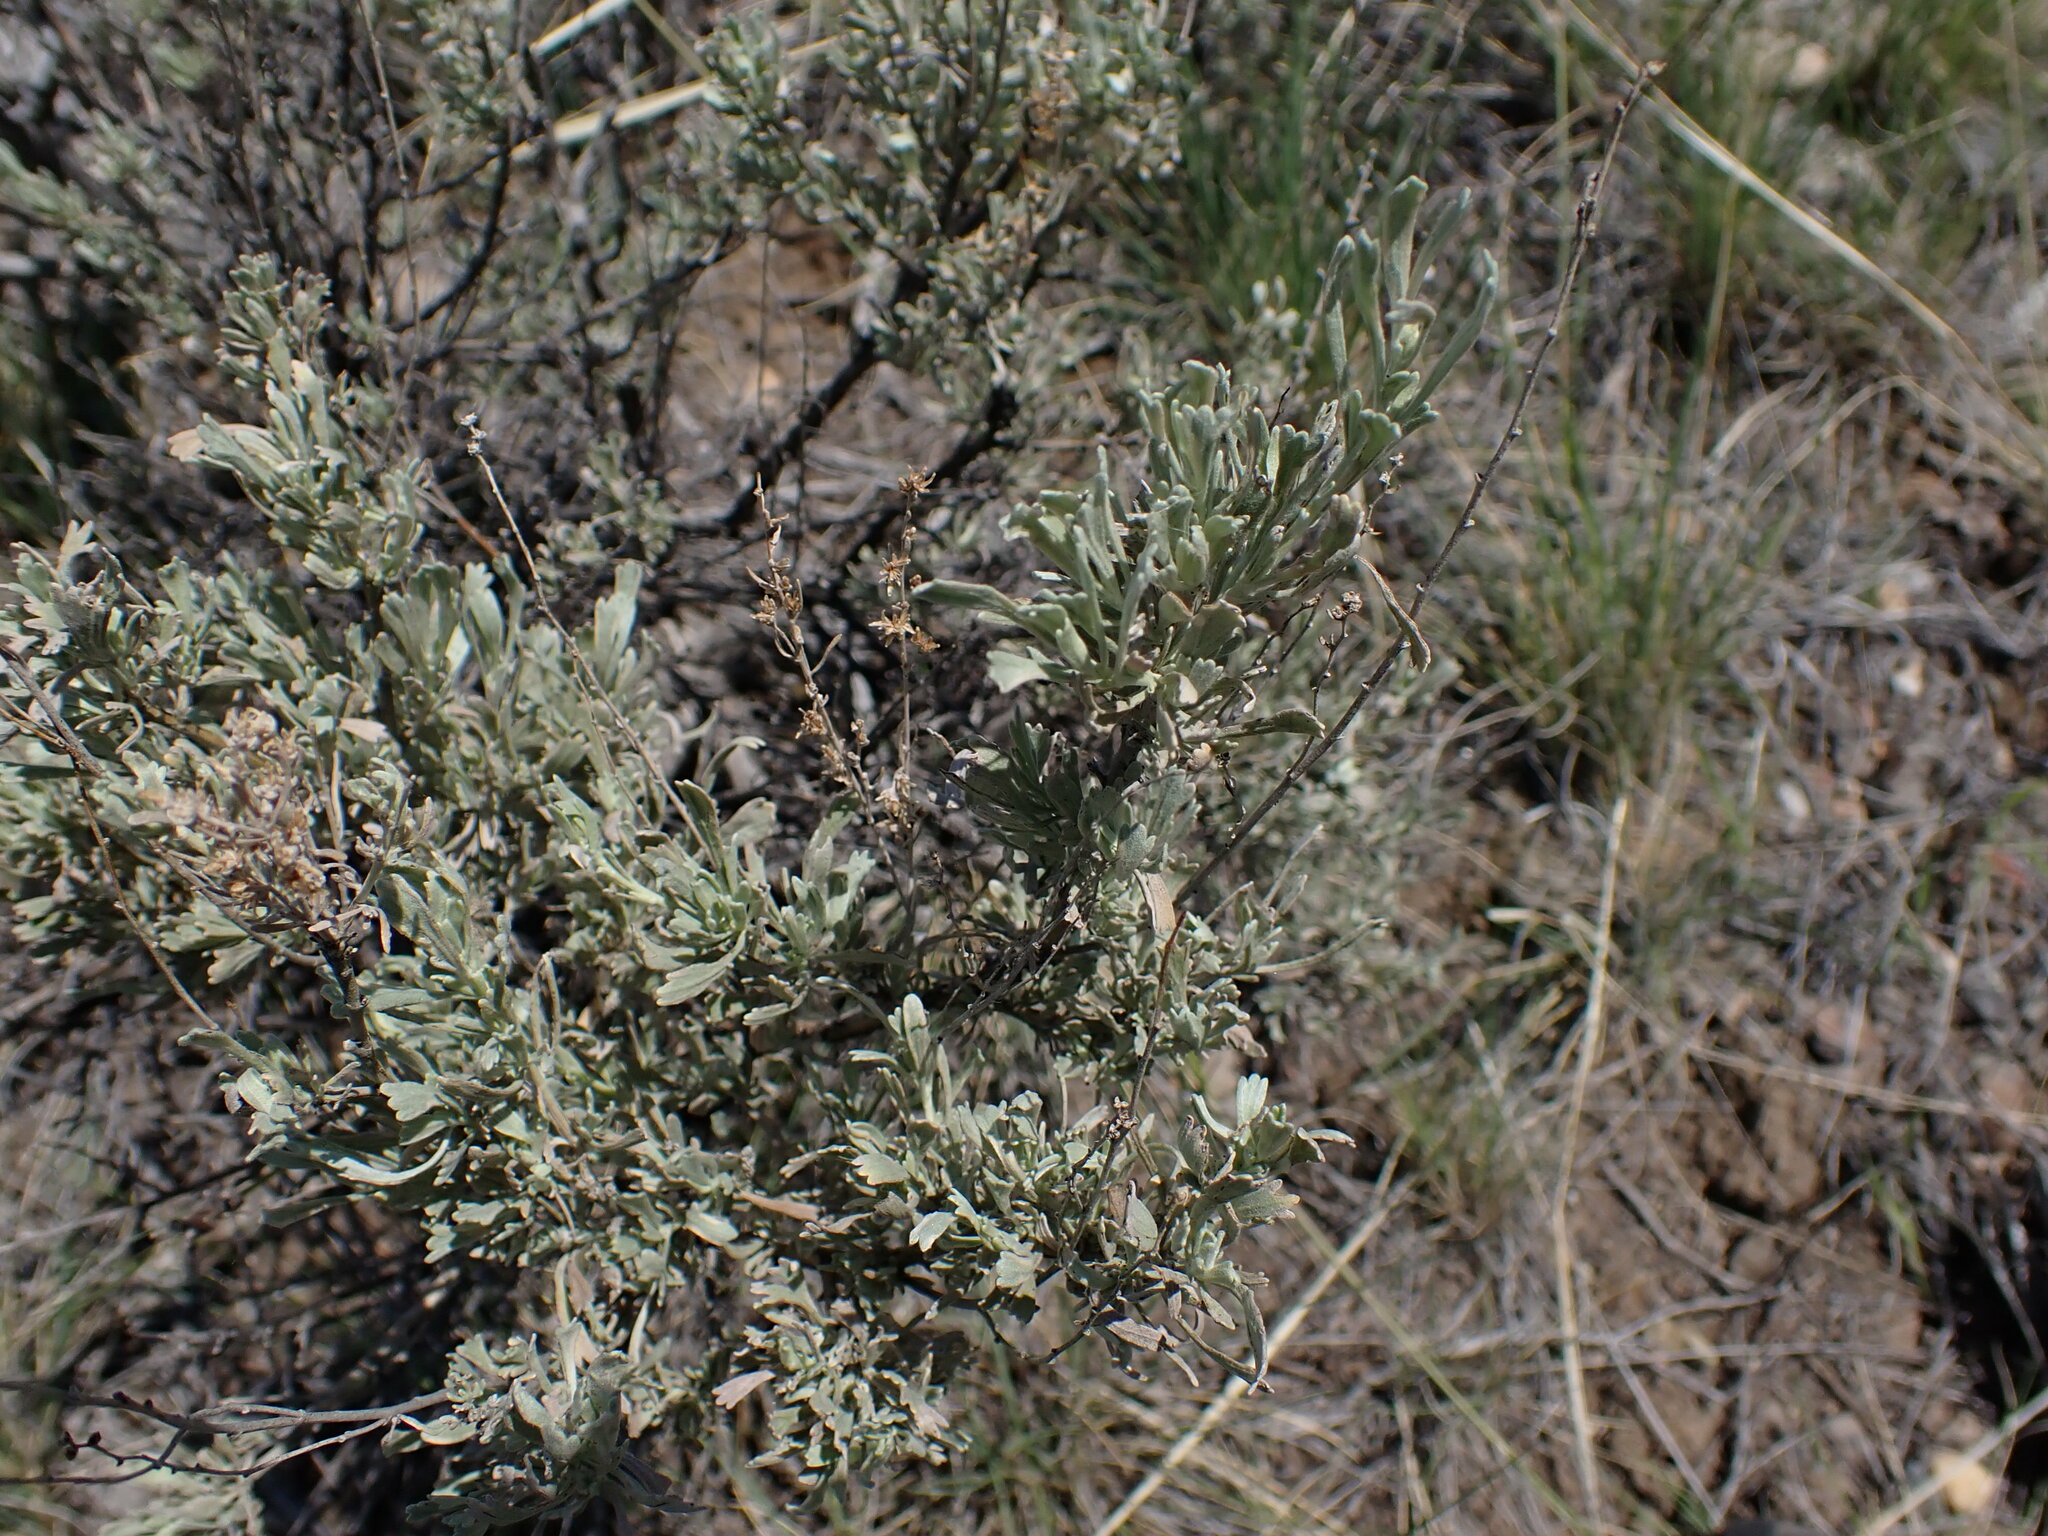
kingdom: Plantae
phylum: Tracheophyta
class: Magnoliopsida
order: Asterales
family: Asteraceae
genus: Artemisia
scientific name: Artemisia tridentata
